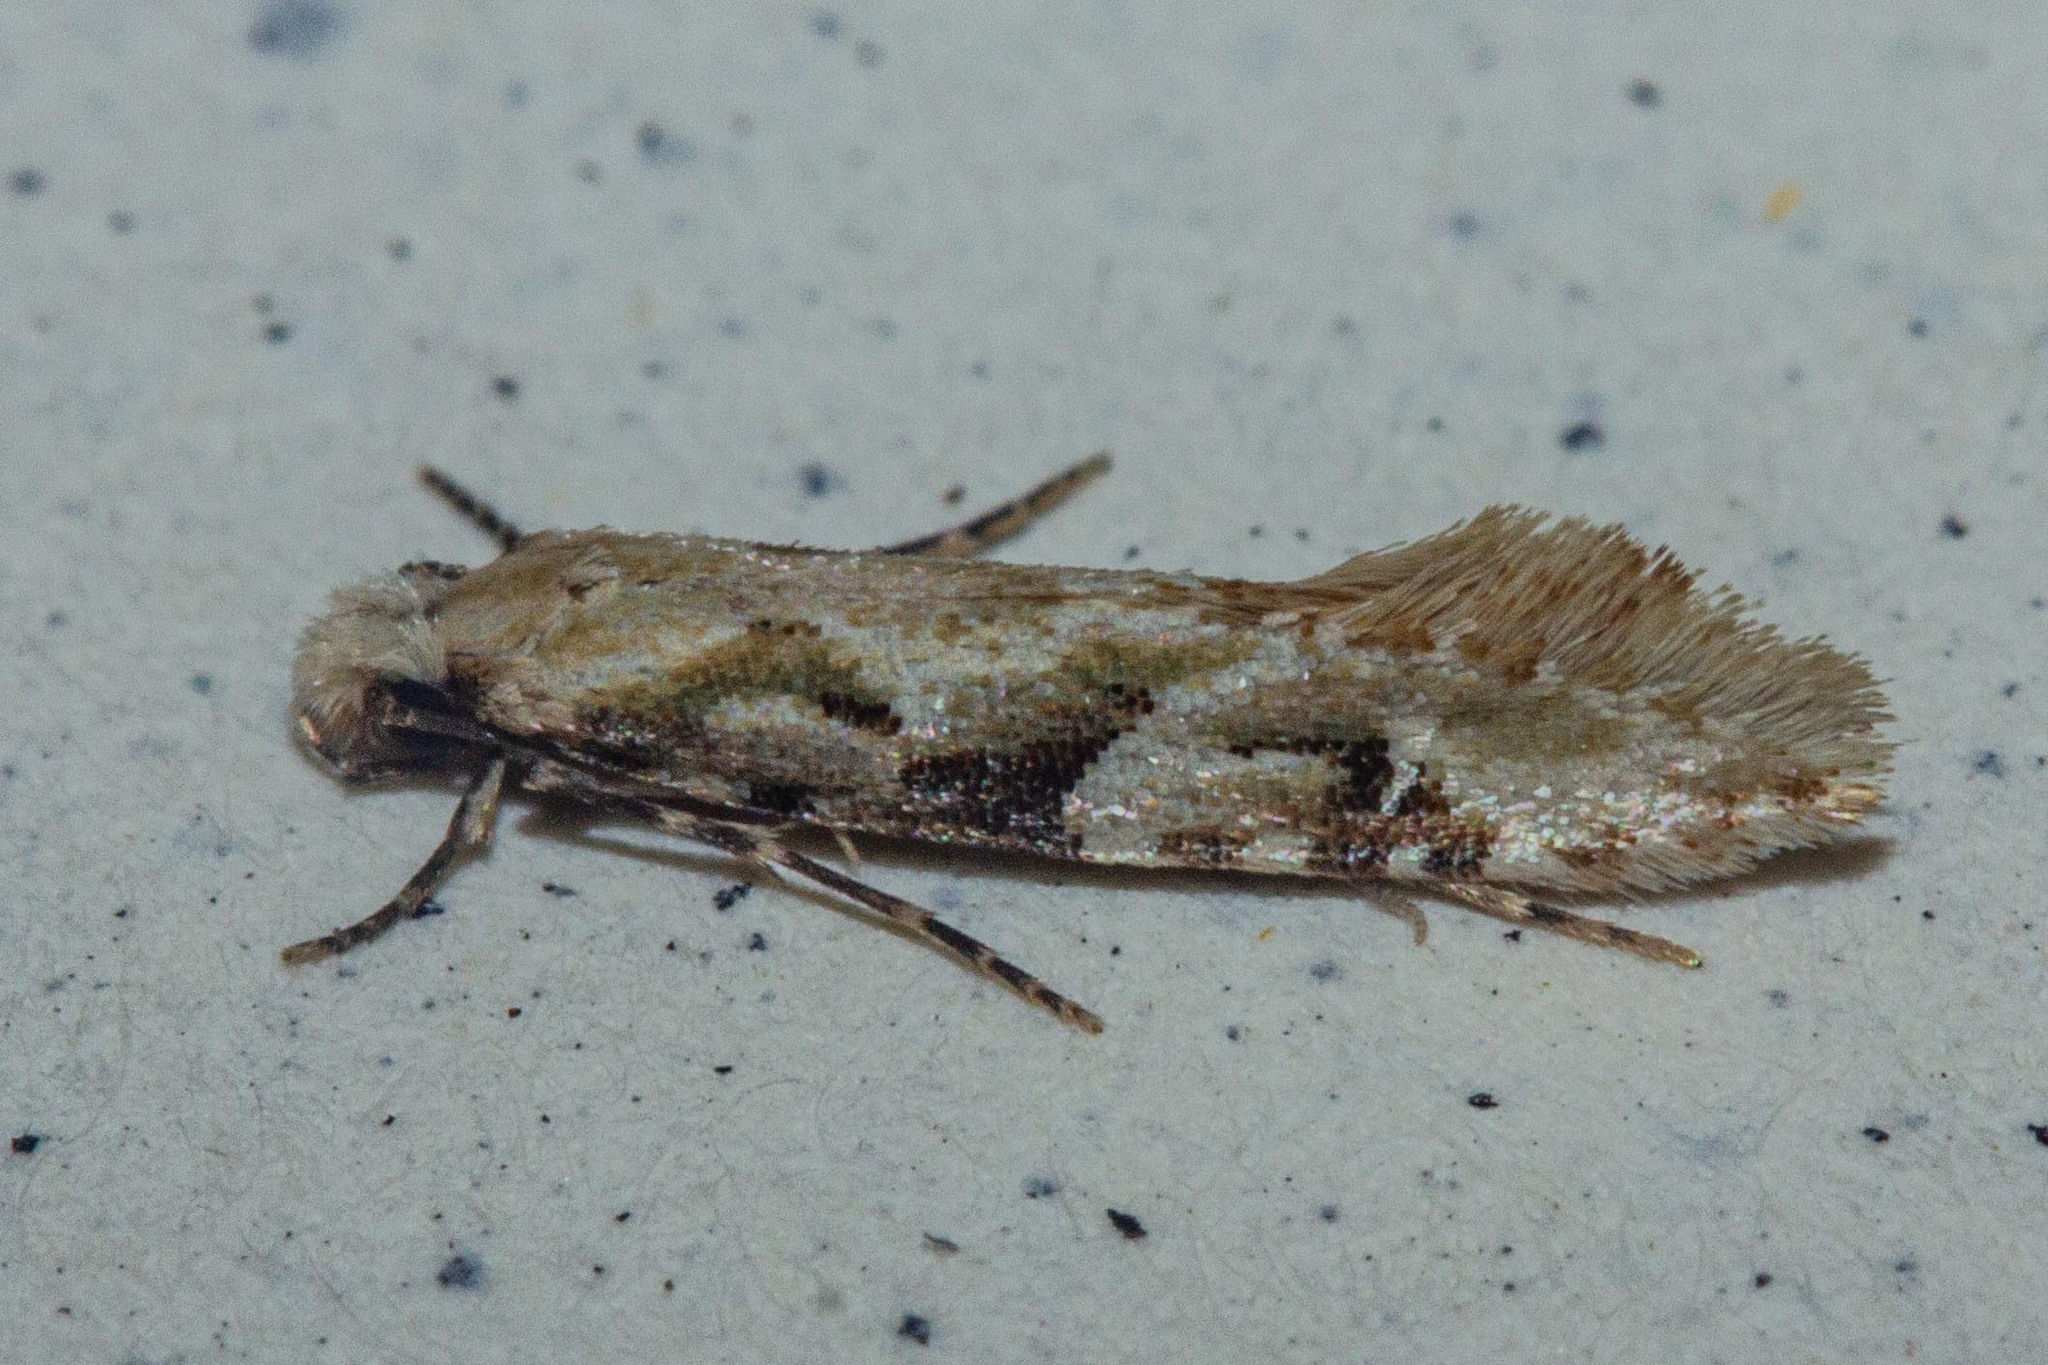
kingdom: Animalia
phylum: Arthropoda
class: Insecta
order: Lepidoptera
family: Tineidae
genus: Crypsitricha
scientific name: Crypsitricha mesotypa
